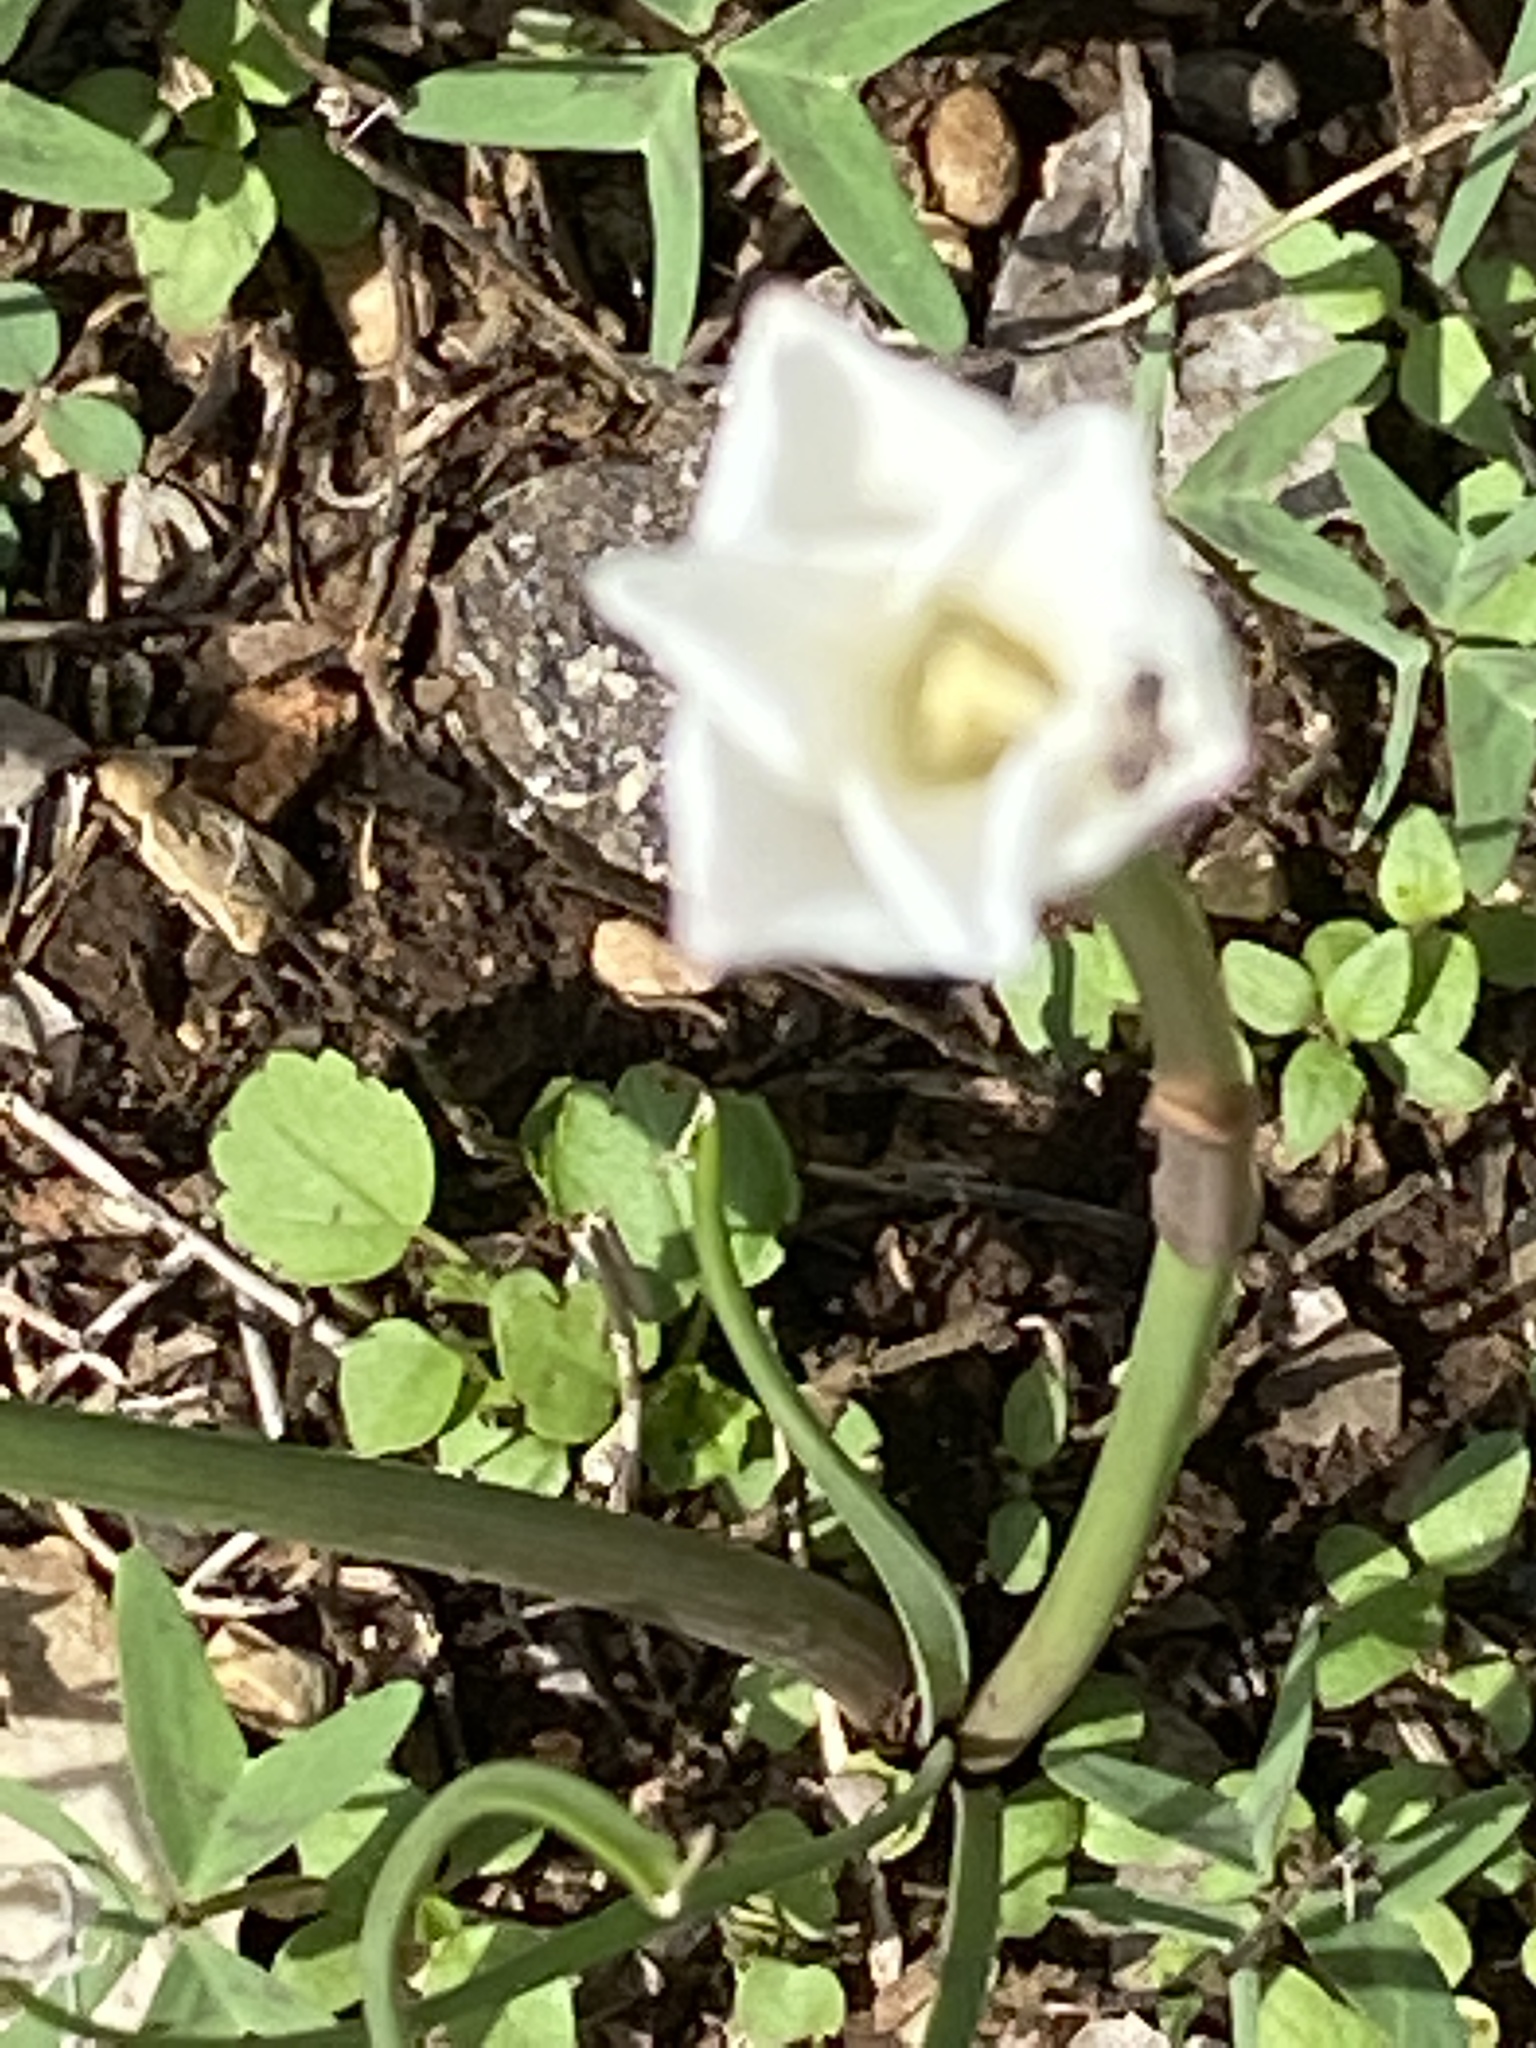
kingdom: Plantae
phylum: Tracheophyta
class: Liliopsida
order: Asparagales
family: Amaryllidaceae
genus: Zephyranthes
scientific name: Zephyranthes chlorosolen
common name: Evening rain-lily
